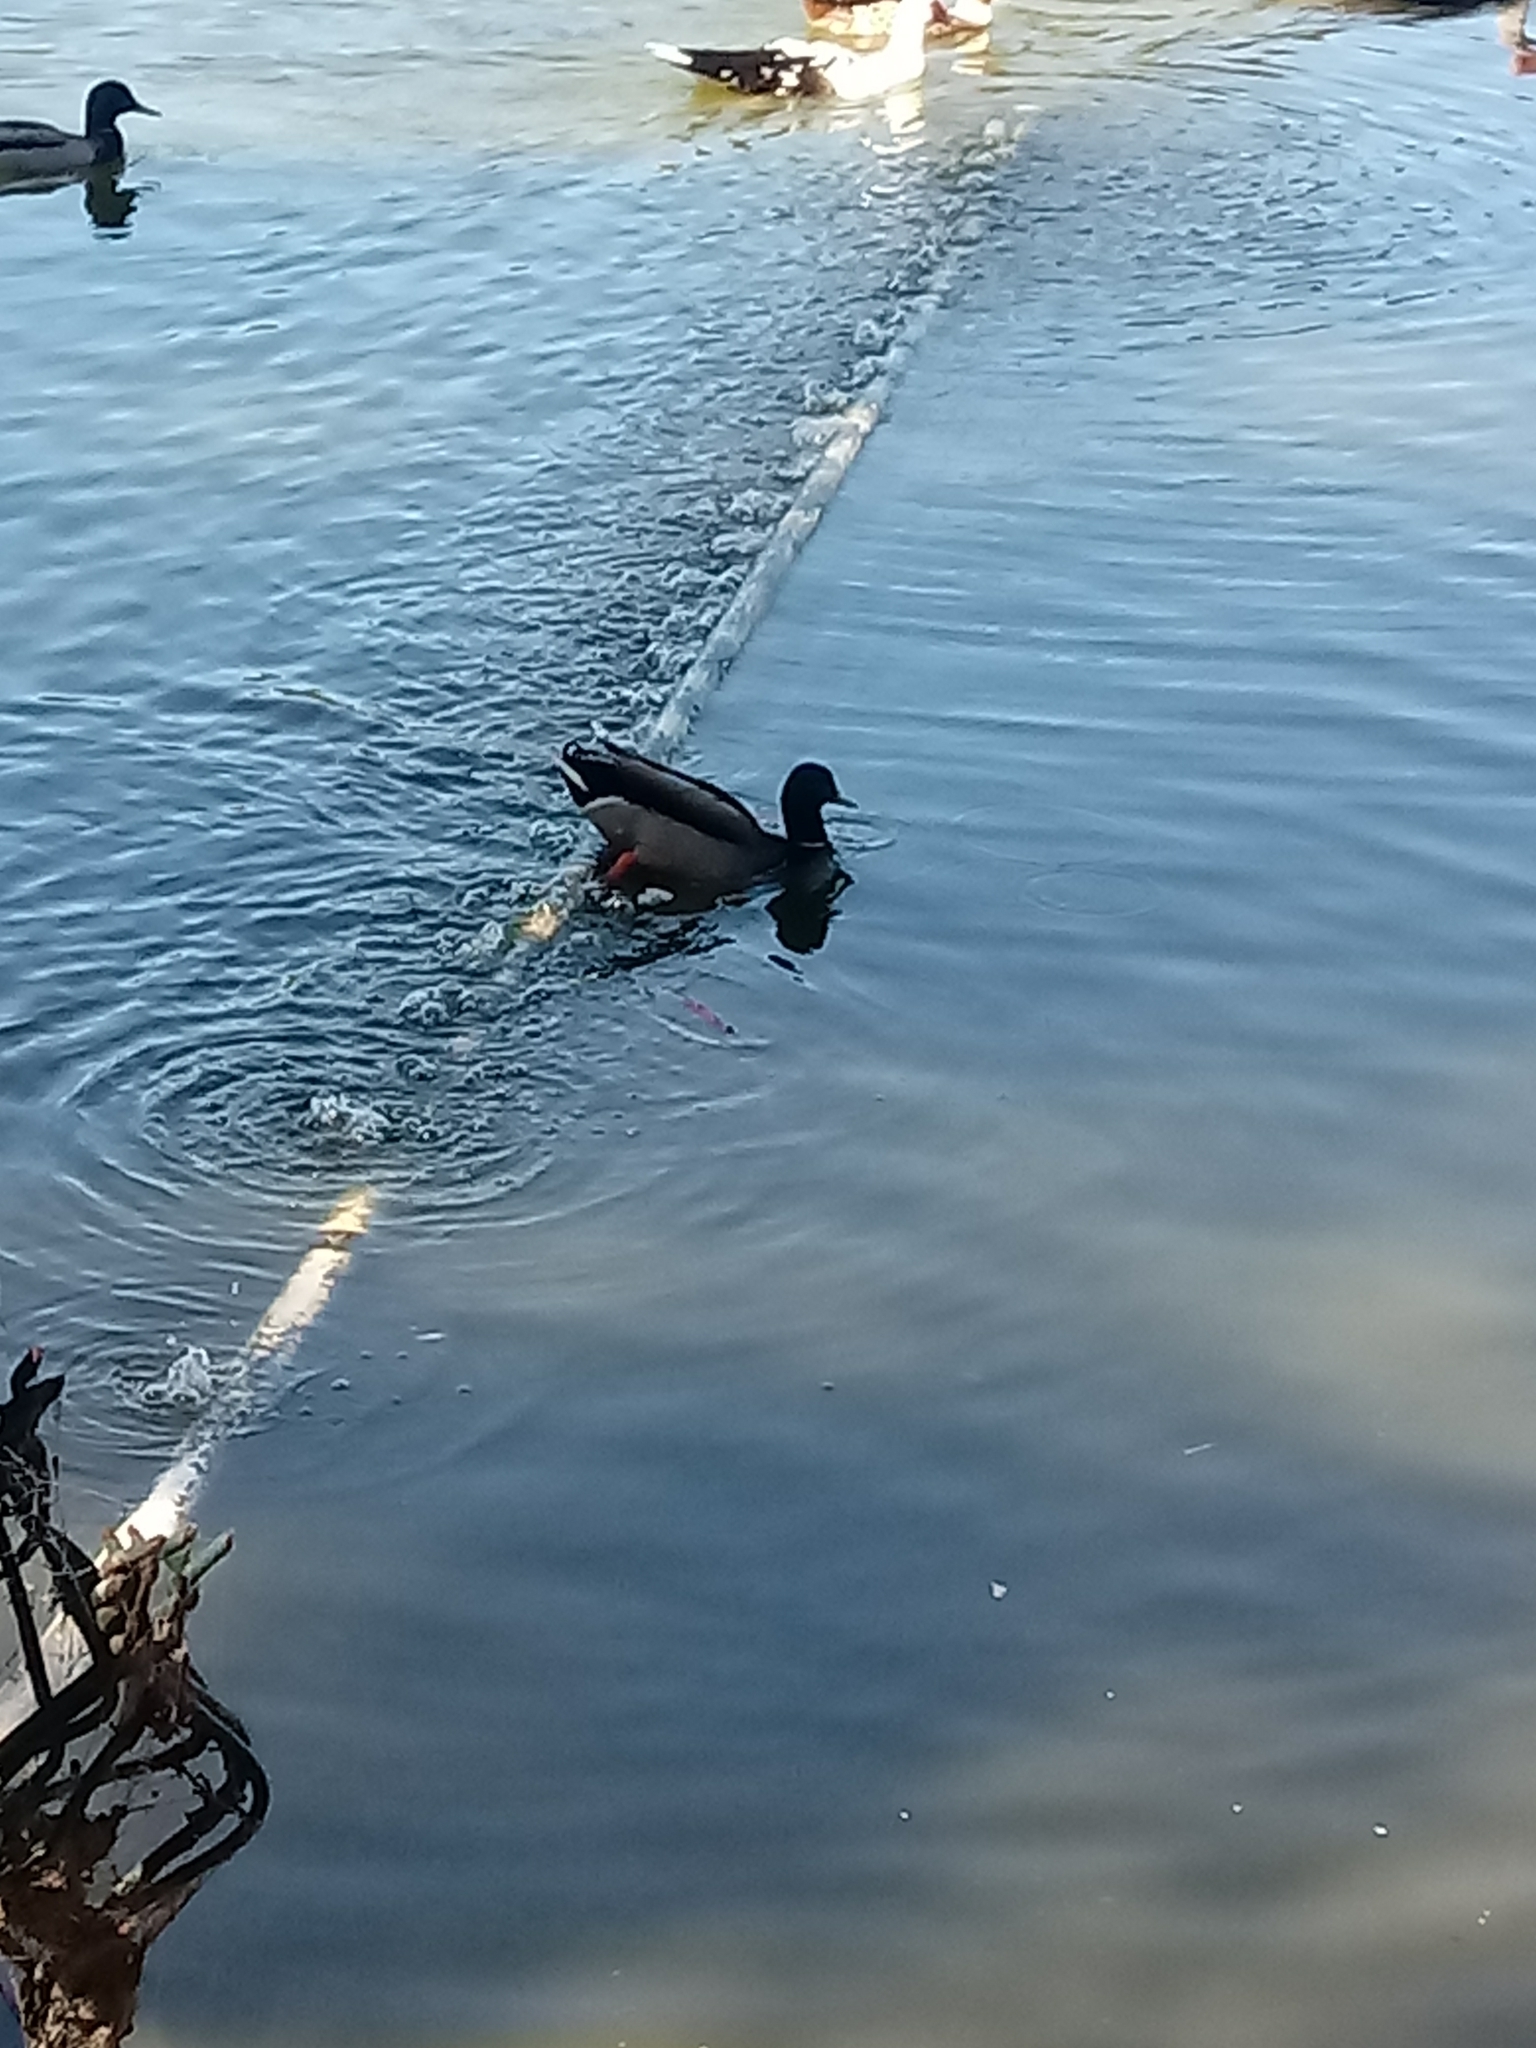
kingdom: Animalia
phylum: Chordata
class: Aves
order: Anseriformes
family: Anatidae
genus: Anas
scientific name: Anas platyrhynchos
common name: Mallard
